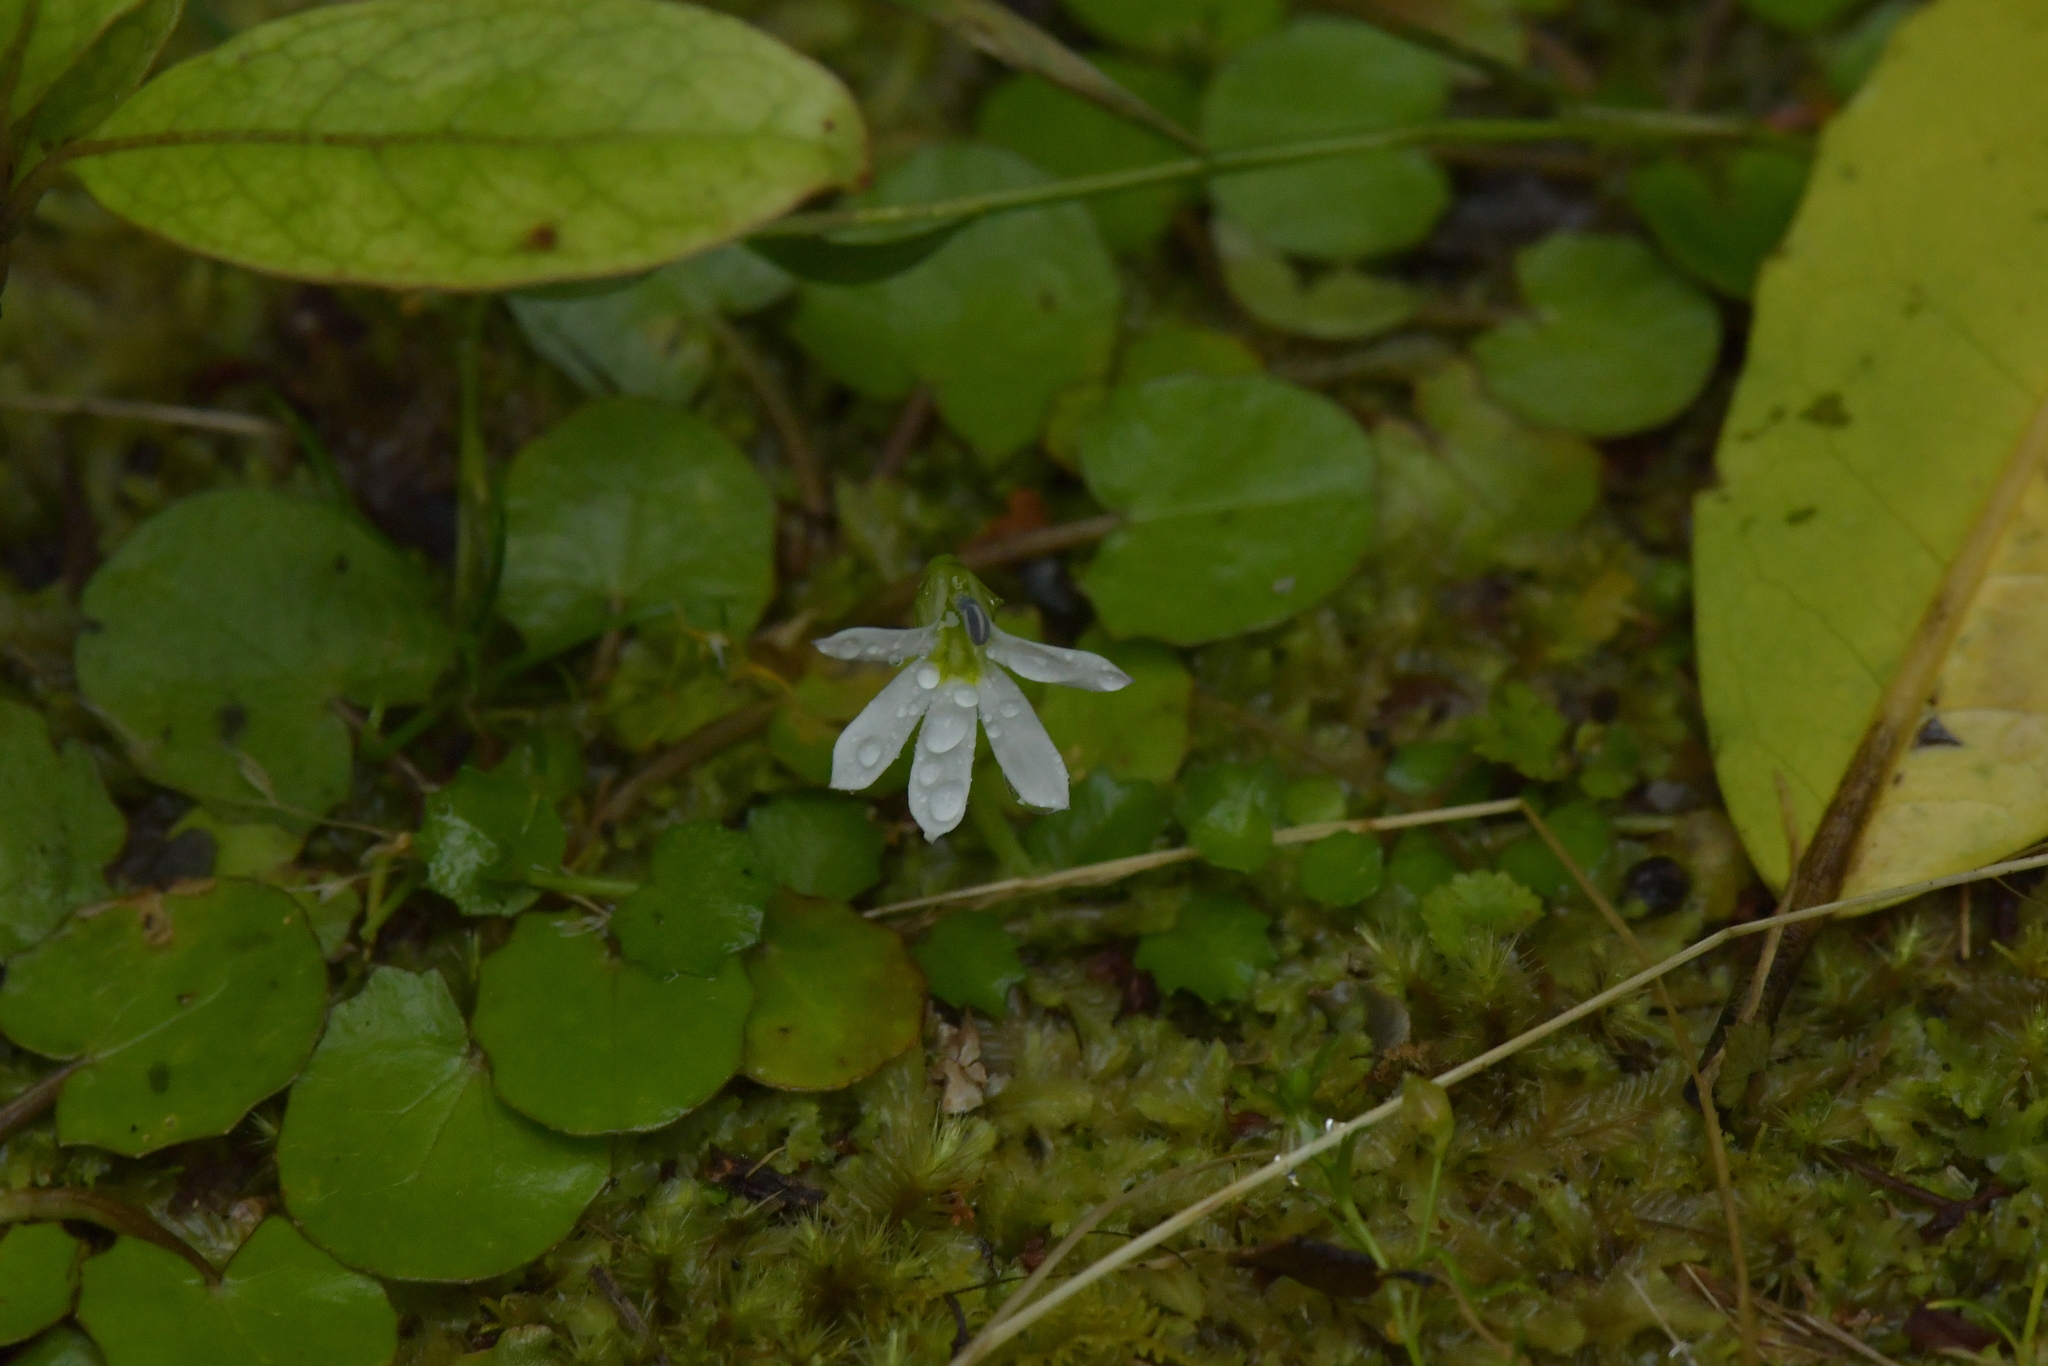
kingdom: Plantae
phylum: Tracheophyta
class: Magnoliopsida
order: Asterales
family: Campanulaceae
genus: Lobelia
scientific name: Lobelia angulata
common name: Lawn lobelia
